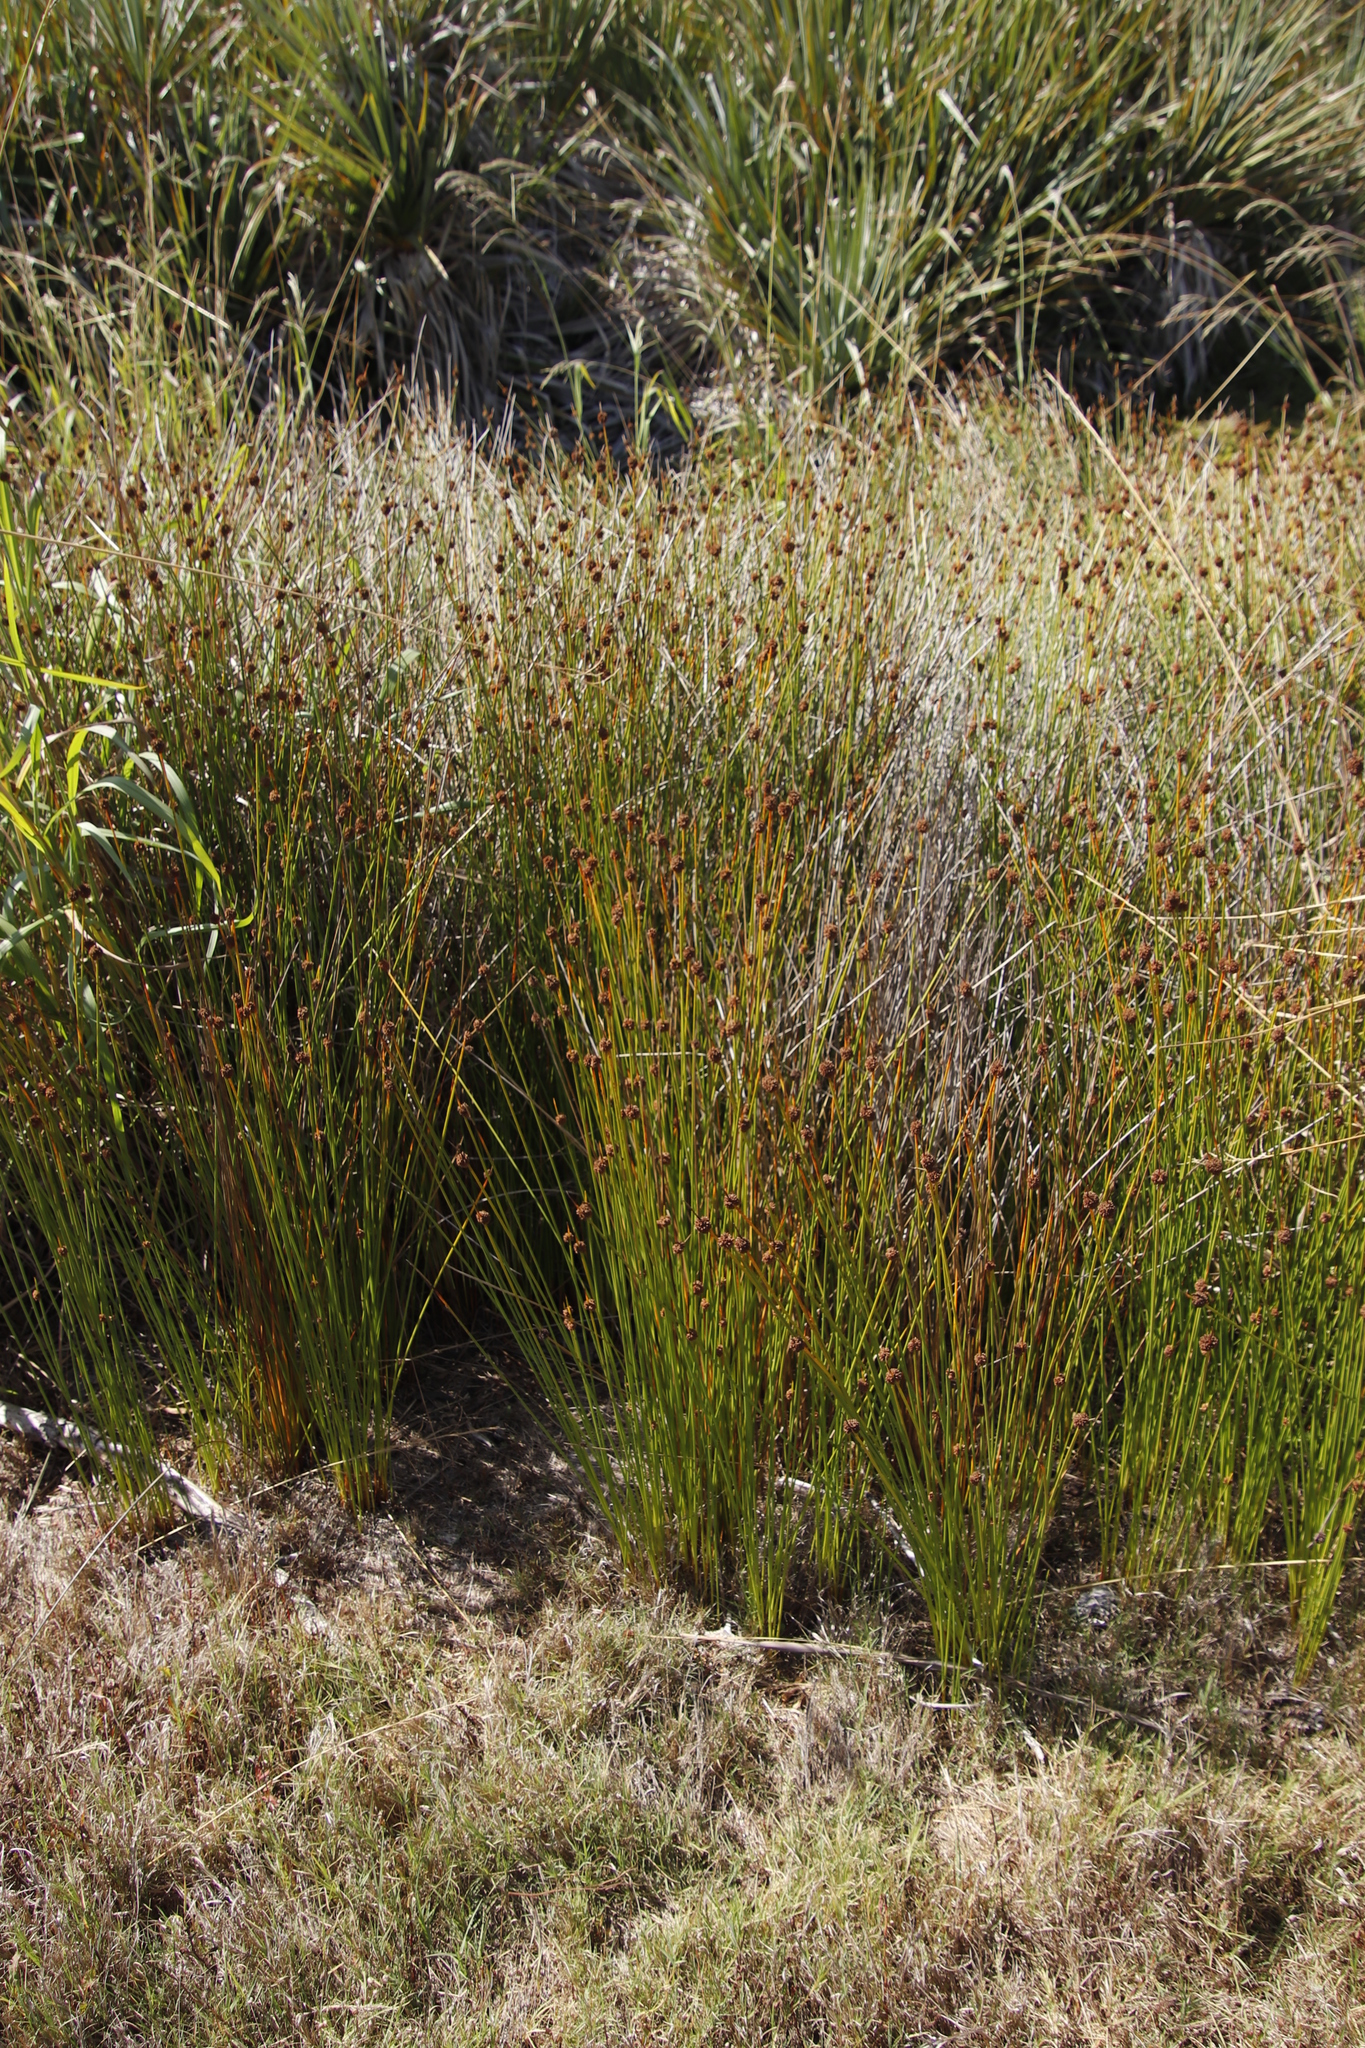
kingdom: Plantae
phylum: Tracheophyta
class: Liliopsida
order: Poales
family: Cyperaceae
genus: Ficinia
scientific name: Ficinia nodosa
